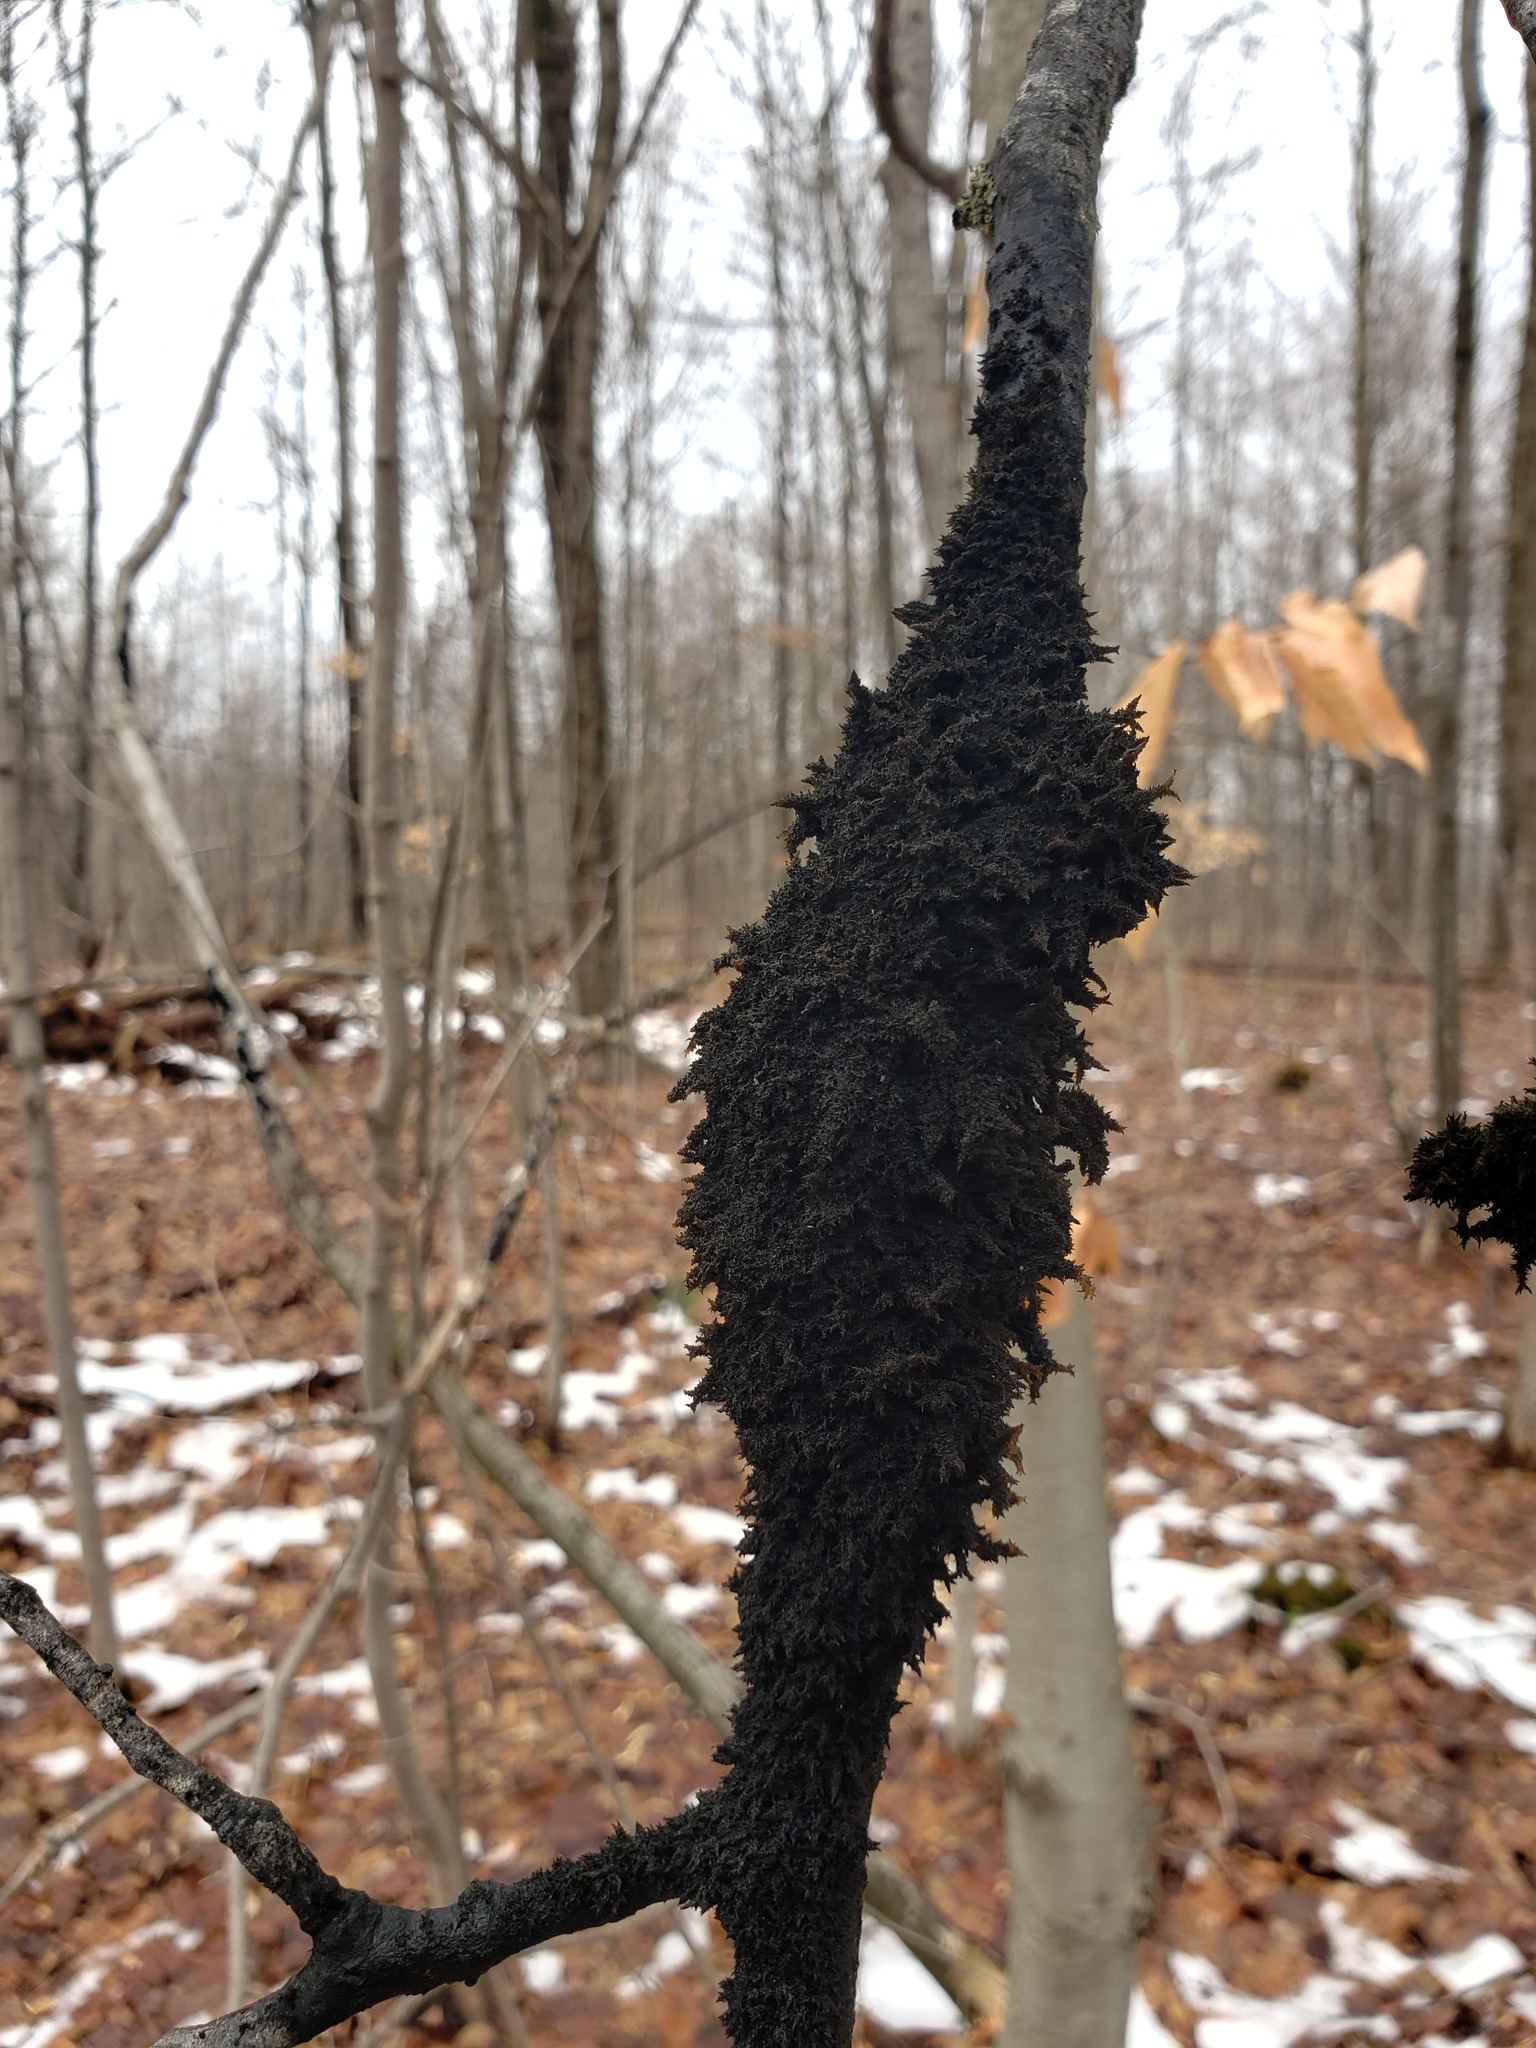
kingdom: Fungi
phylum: Ascomycota
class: Dothideomycetes
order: Capnodiales
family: Capnodiaceae
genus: Scorias
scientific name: Scorias spongiosa
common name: Black sooty mold
